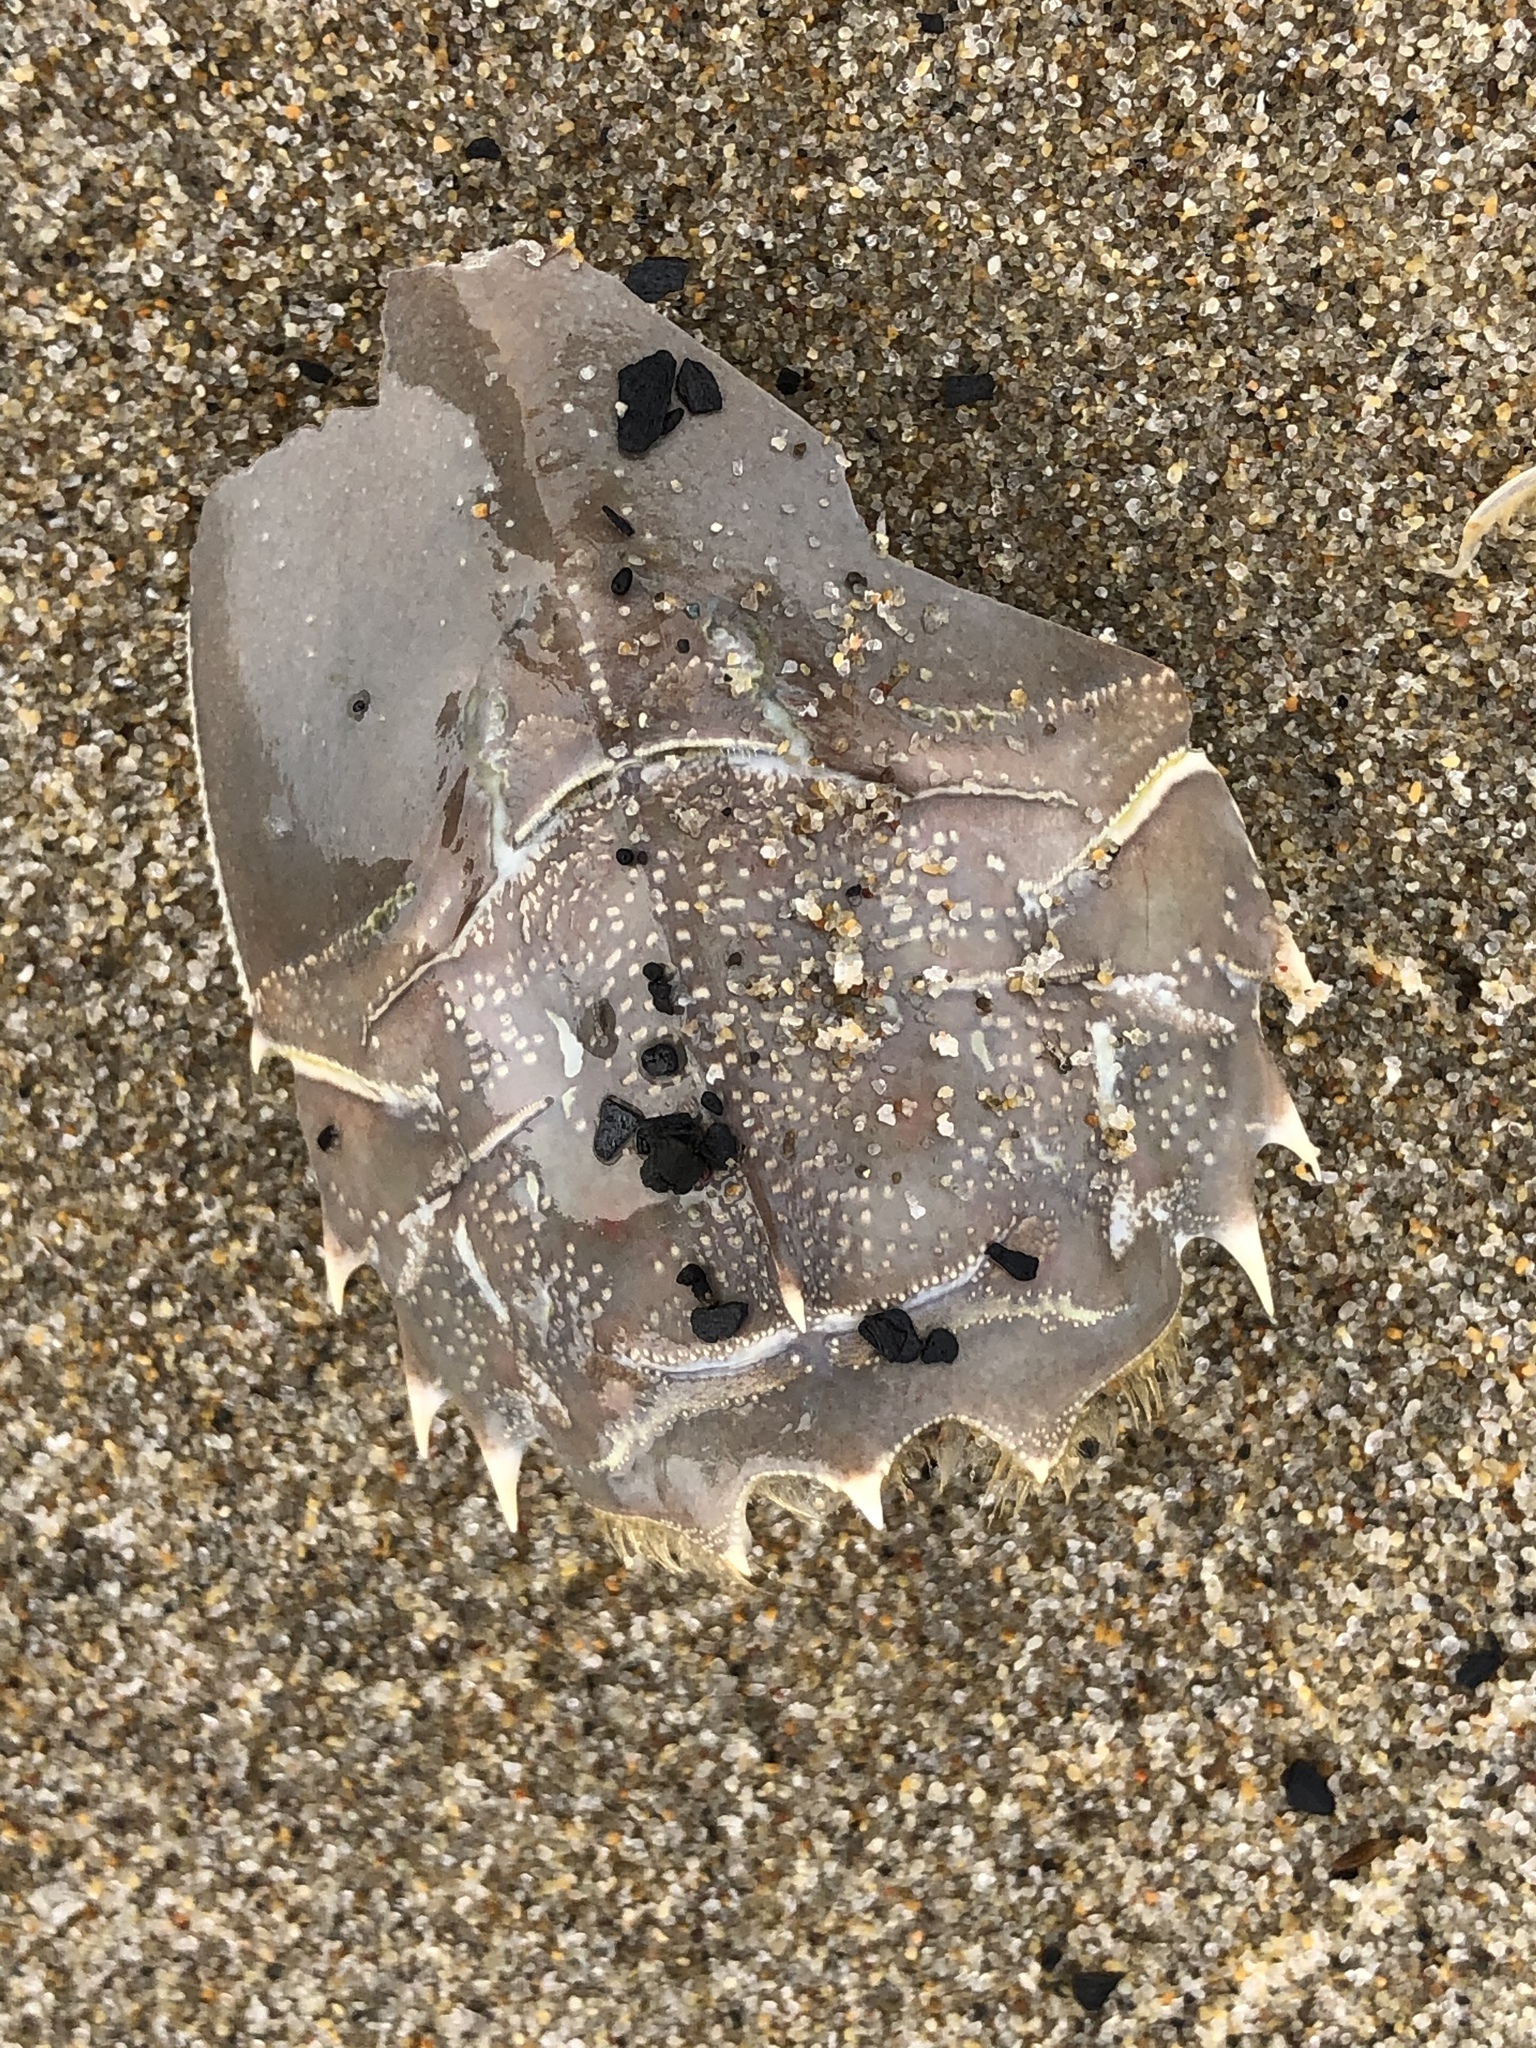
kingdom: Animalia
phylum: Arthropoda
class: Malacostraca
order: Decapoda
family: Blepharipodidae
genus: Blepharipoda
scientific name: Blepharipoda occidentalis
